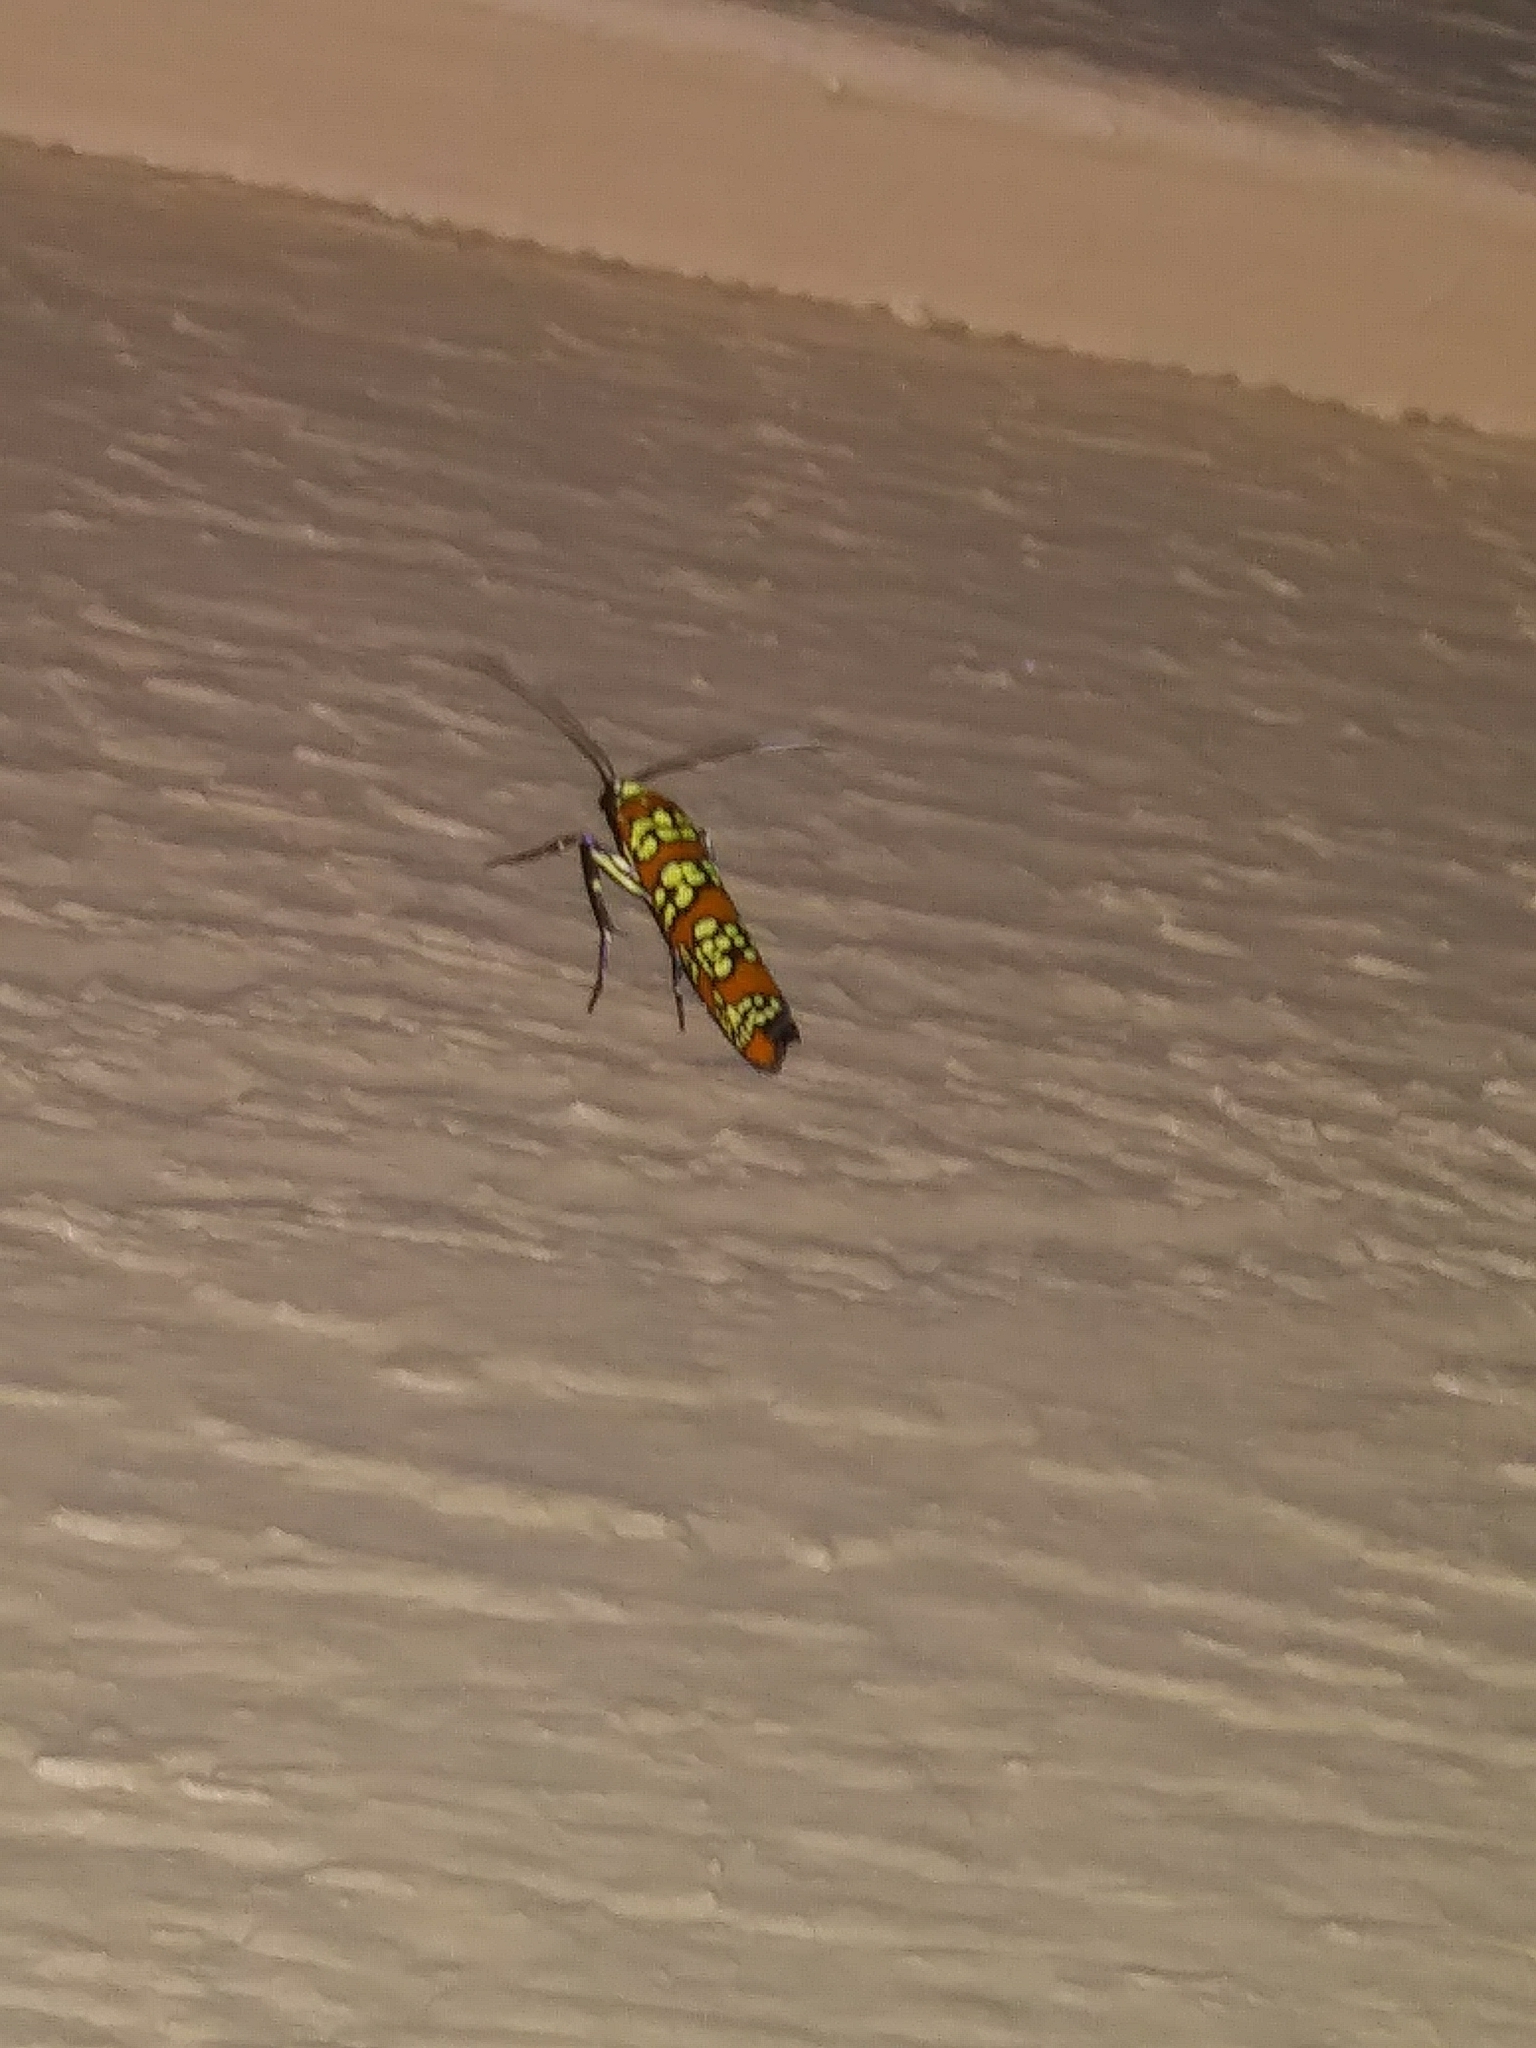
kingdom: Animalia
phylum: Arthropoda
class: Insecta
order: Lepidoptera
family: Attevidae
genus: Atteva
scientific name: Atteva punctella
